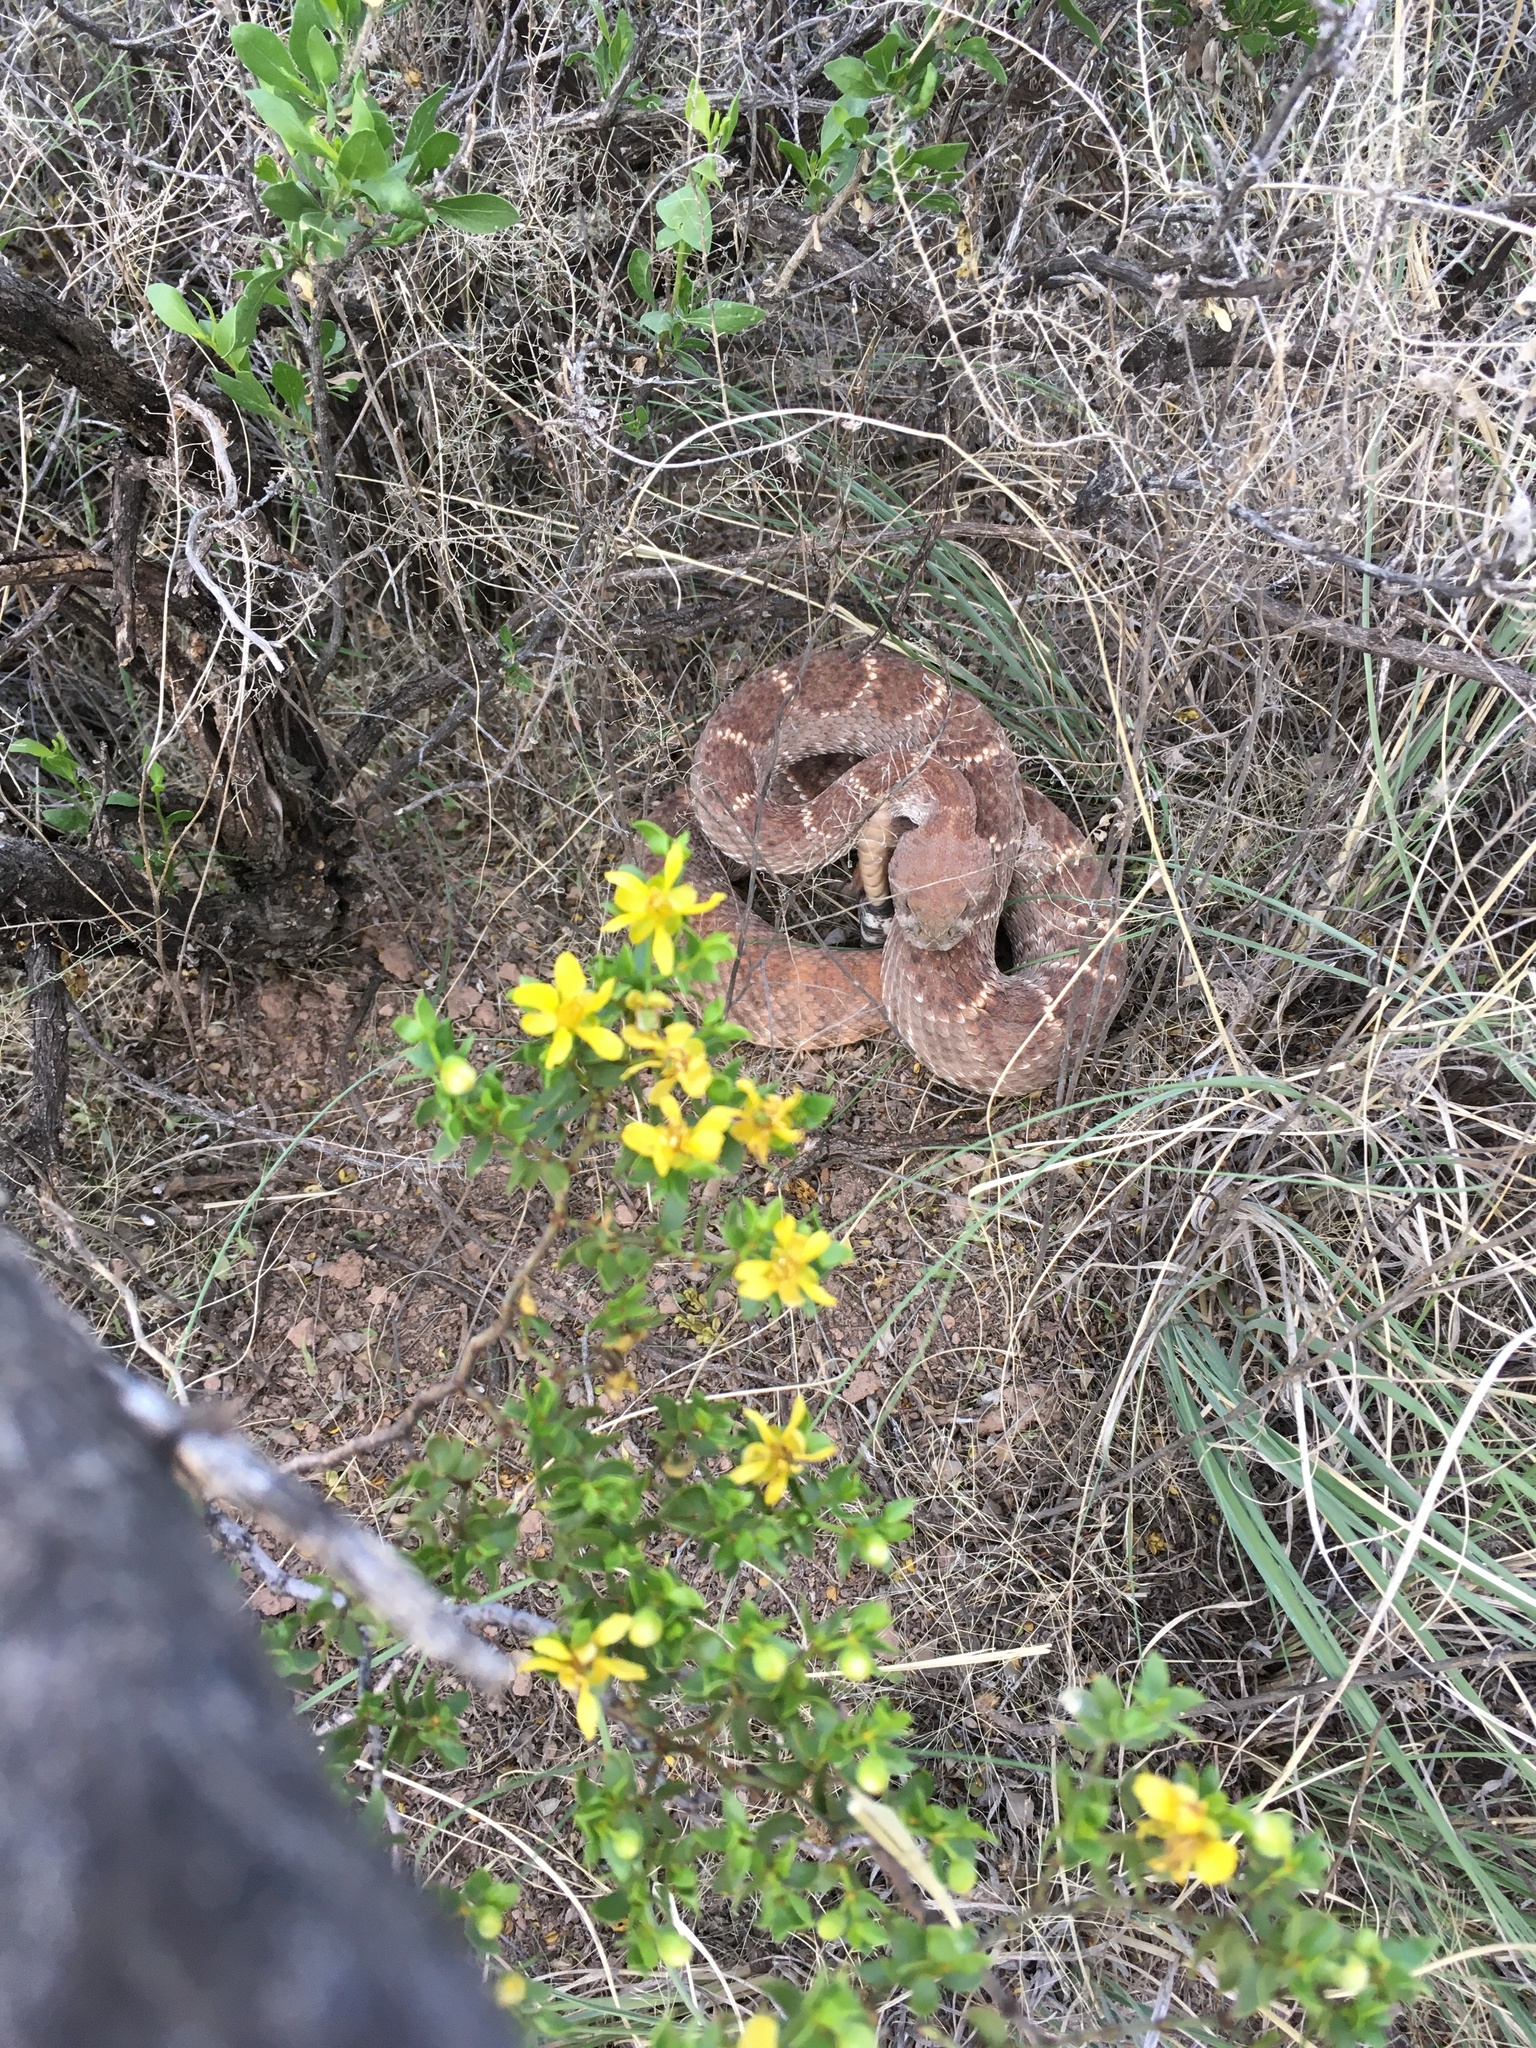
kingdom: Animalia
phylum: Chordata
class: Squamata
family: Viperidae
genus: Crotalus
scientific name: Crotalus atrox
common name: Western diamond-backed rattlesnake
